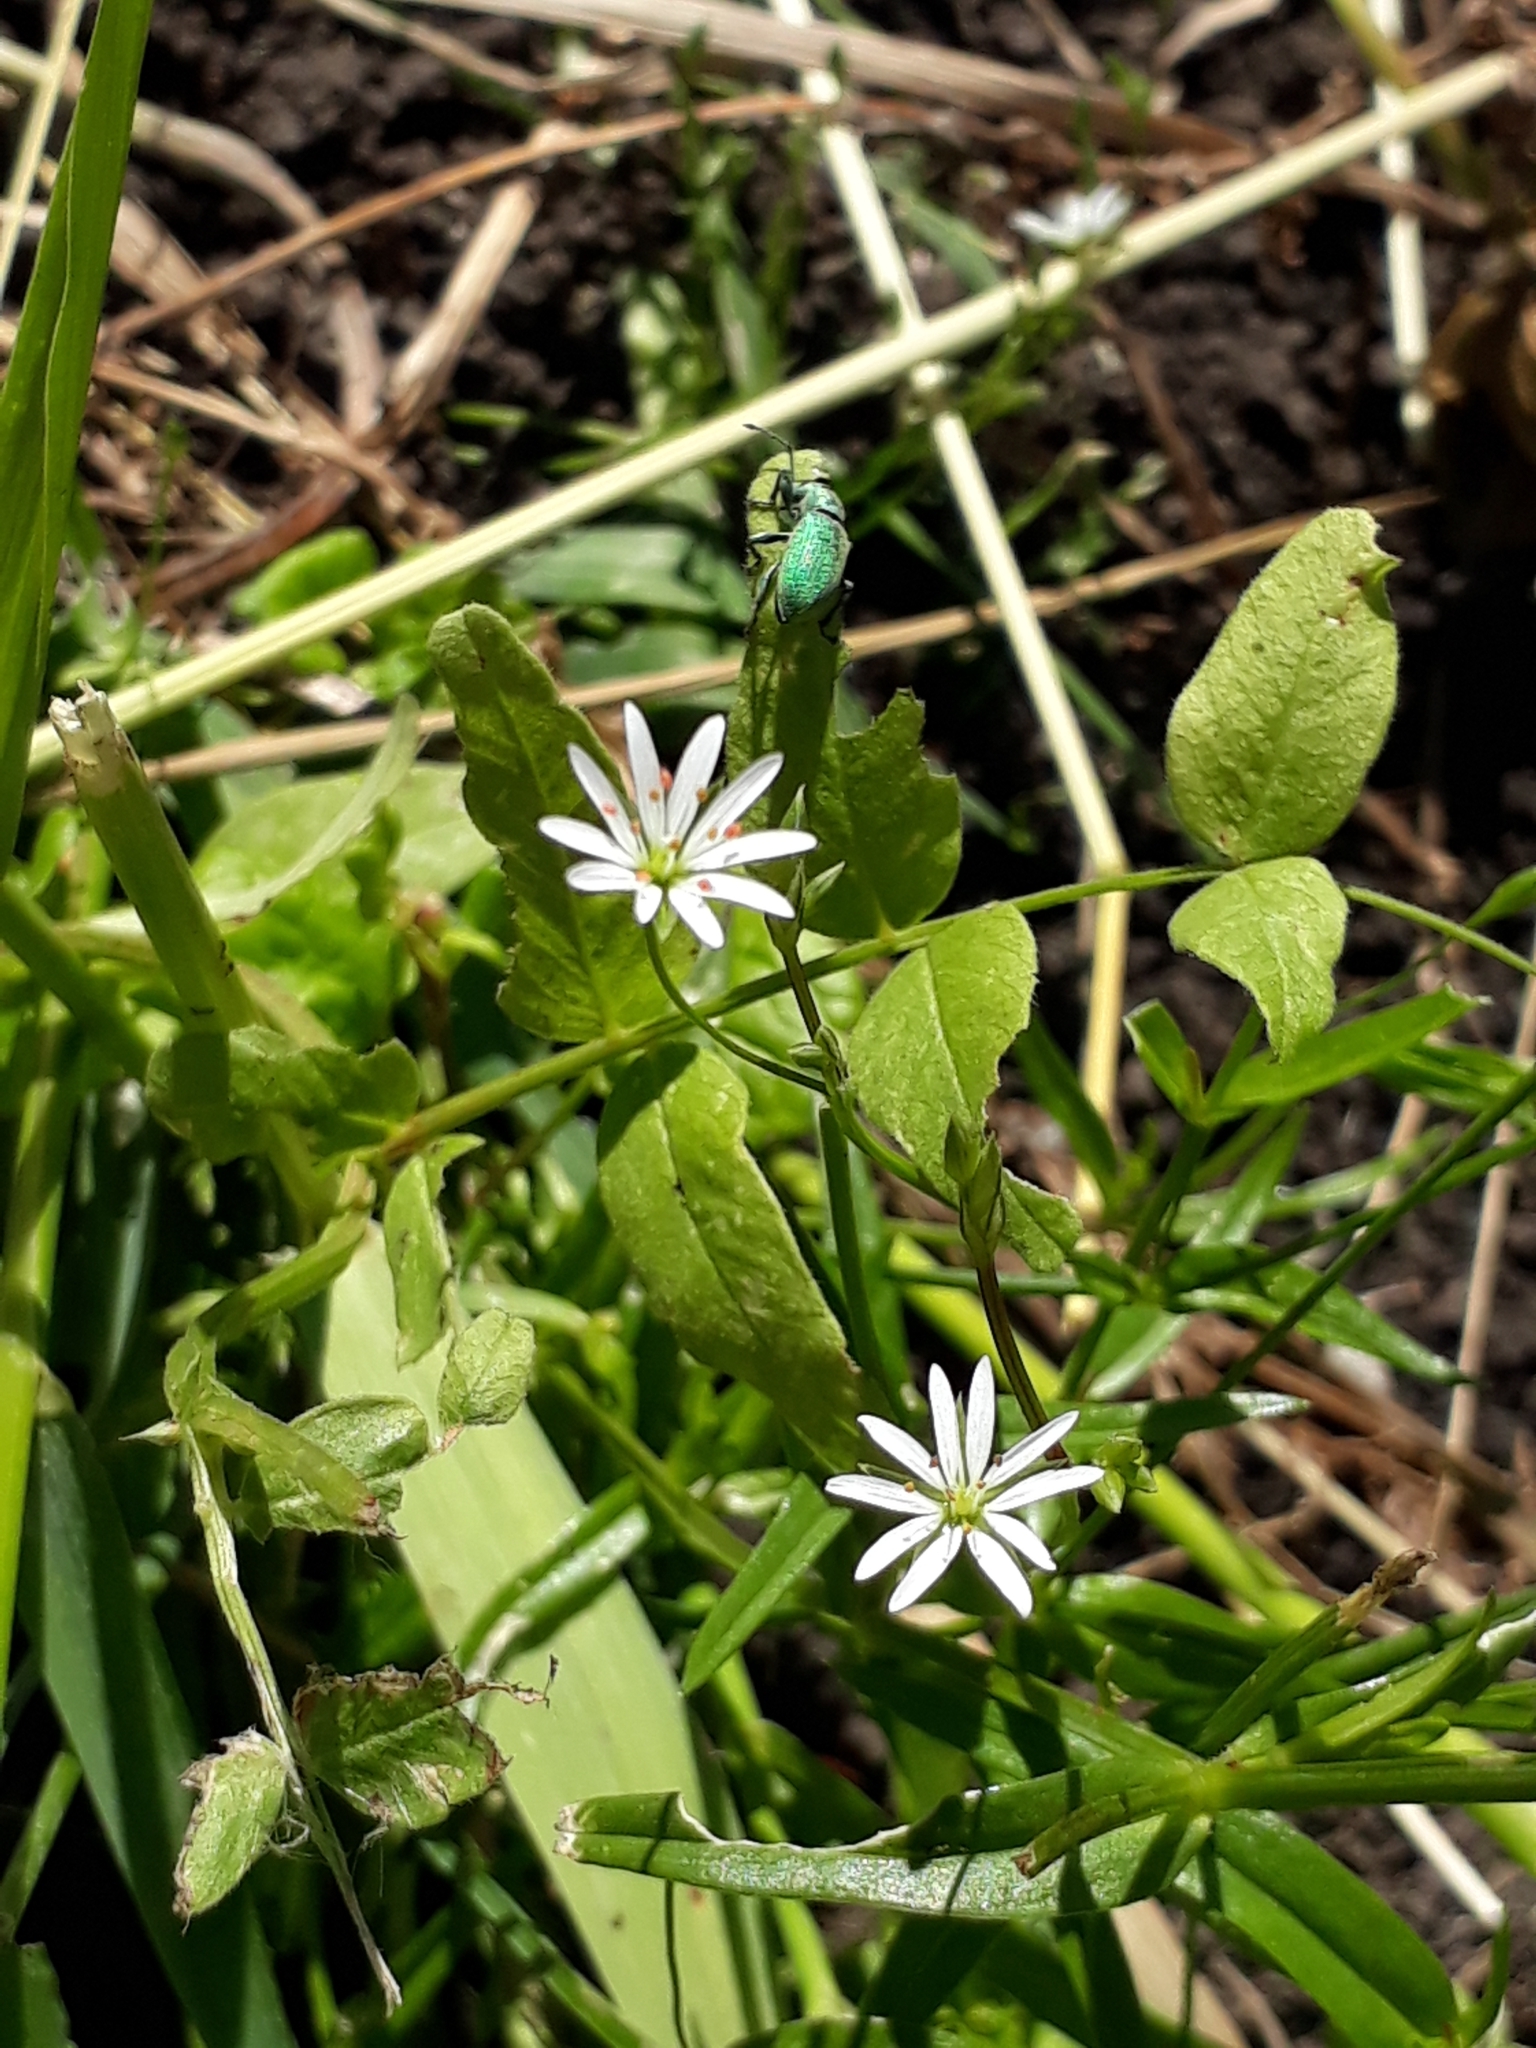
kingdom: Plantae
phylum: Tracheophyta
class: Magnoliopsida
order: Caryophyllales
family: Caryophyllaceae
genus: Stellaria
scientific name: Stellaria bungeana
